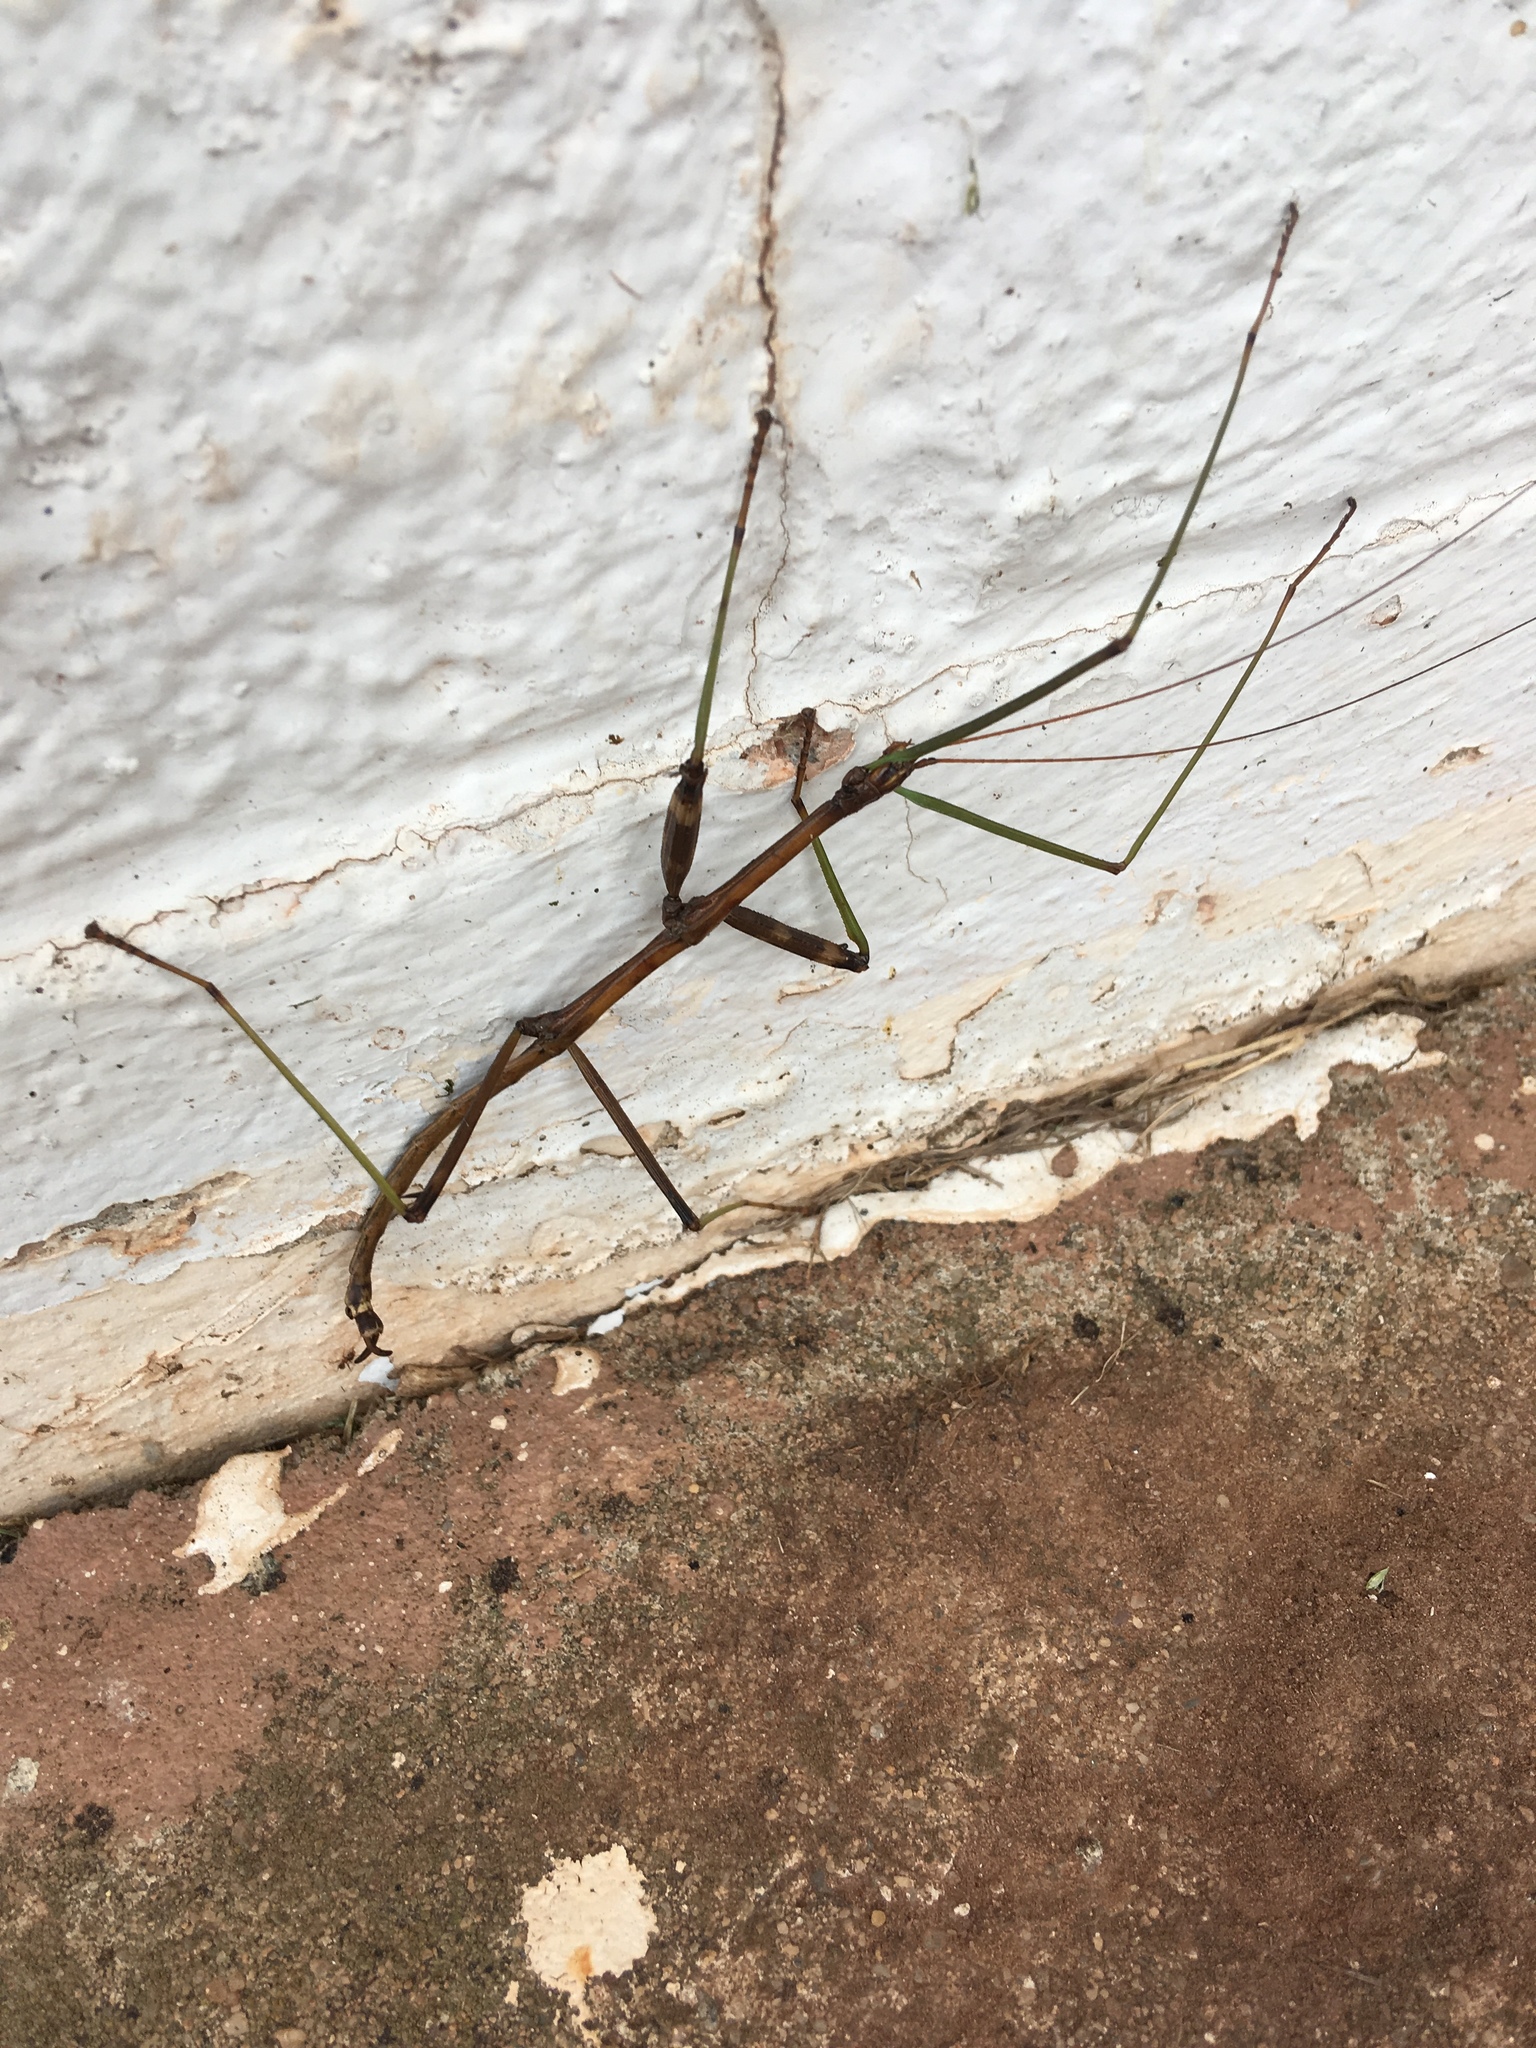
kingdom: Animalia
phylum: Arthropoda
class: Insecta
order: Phasmida
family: Diapheromeridae
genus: Diapheromera
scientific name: Diapheromera femorata
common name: Common american walkingstick
